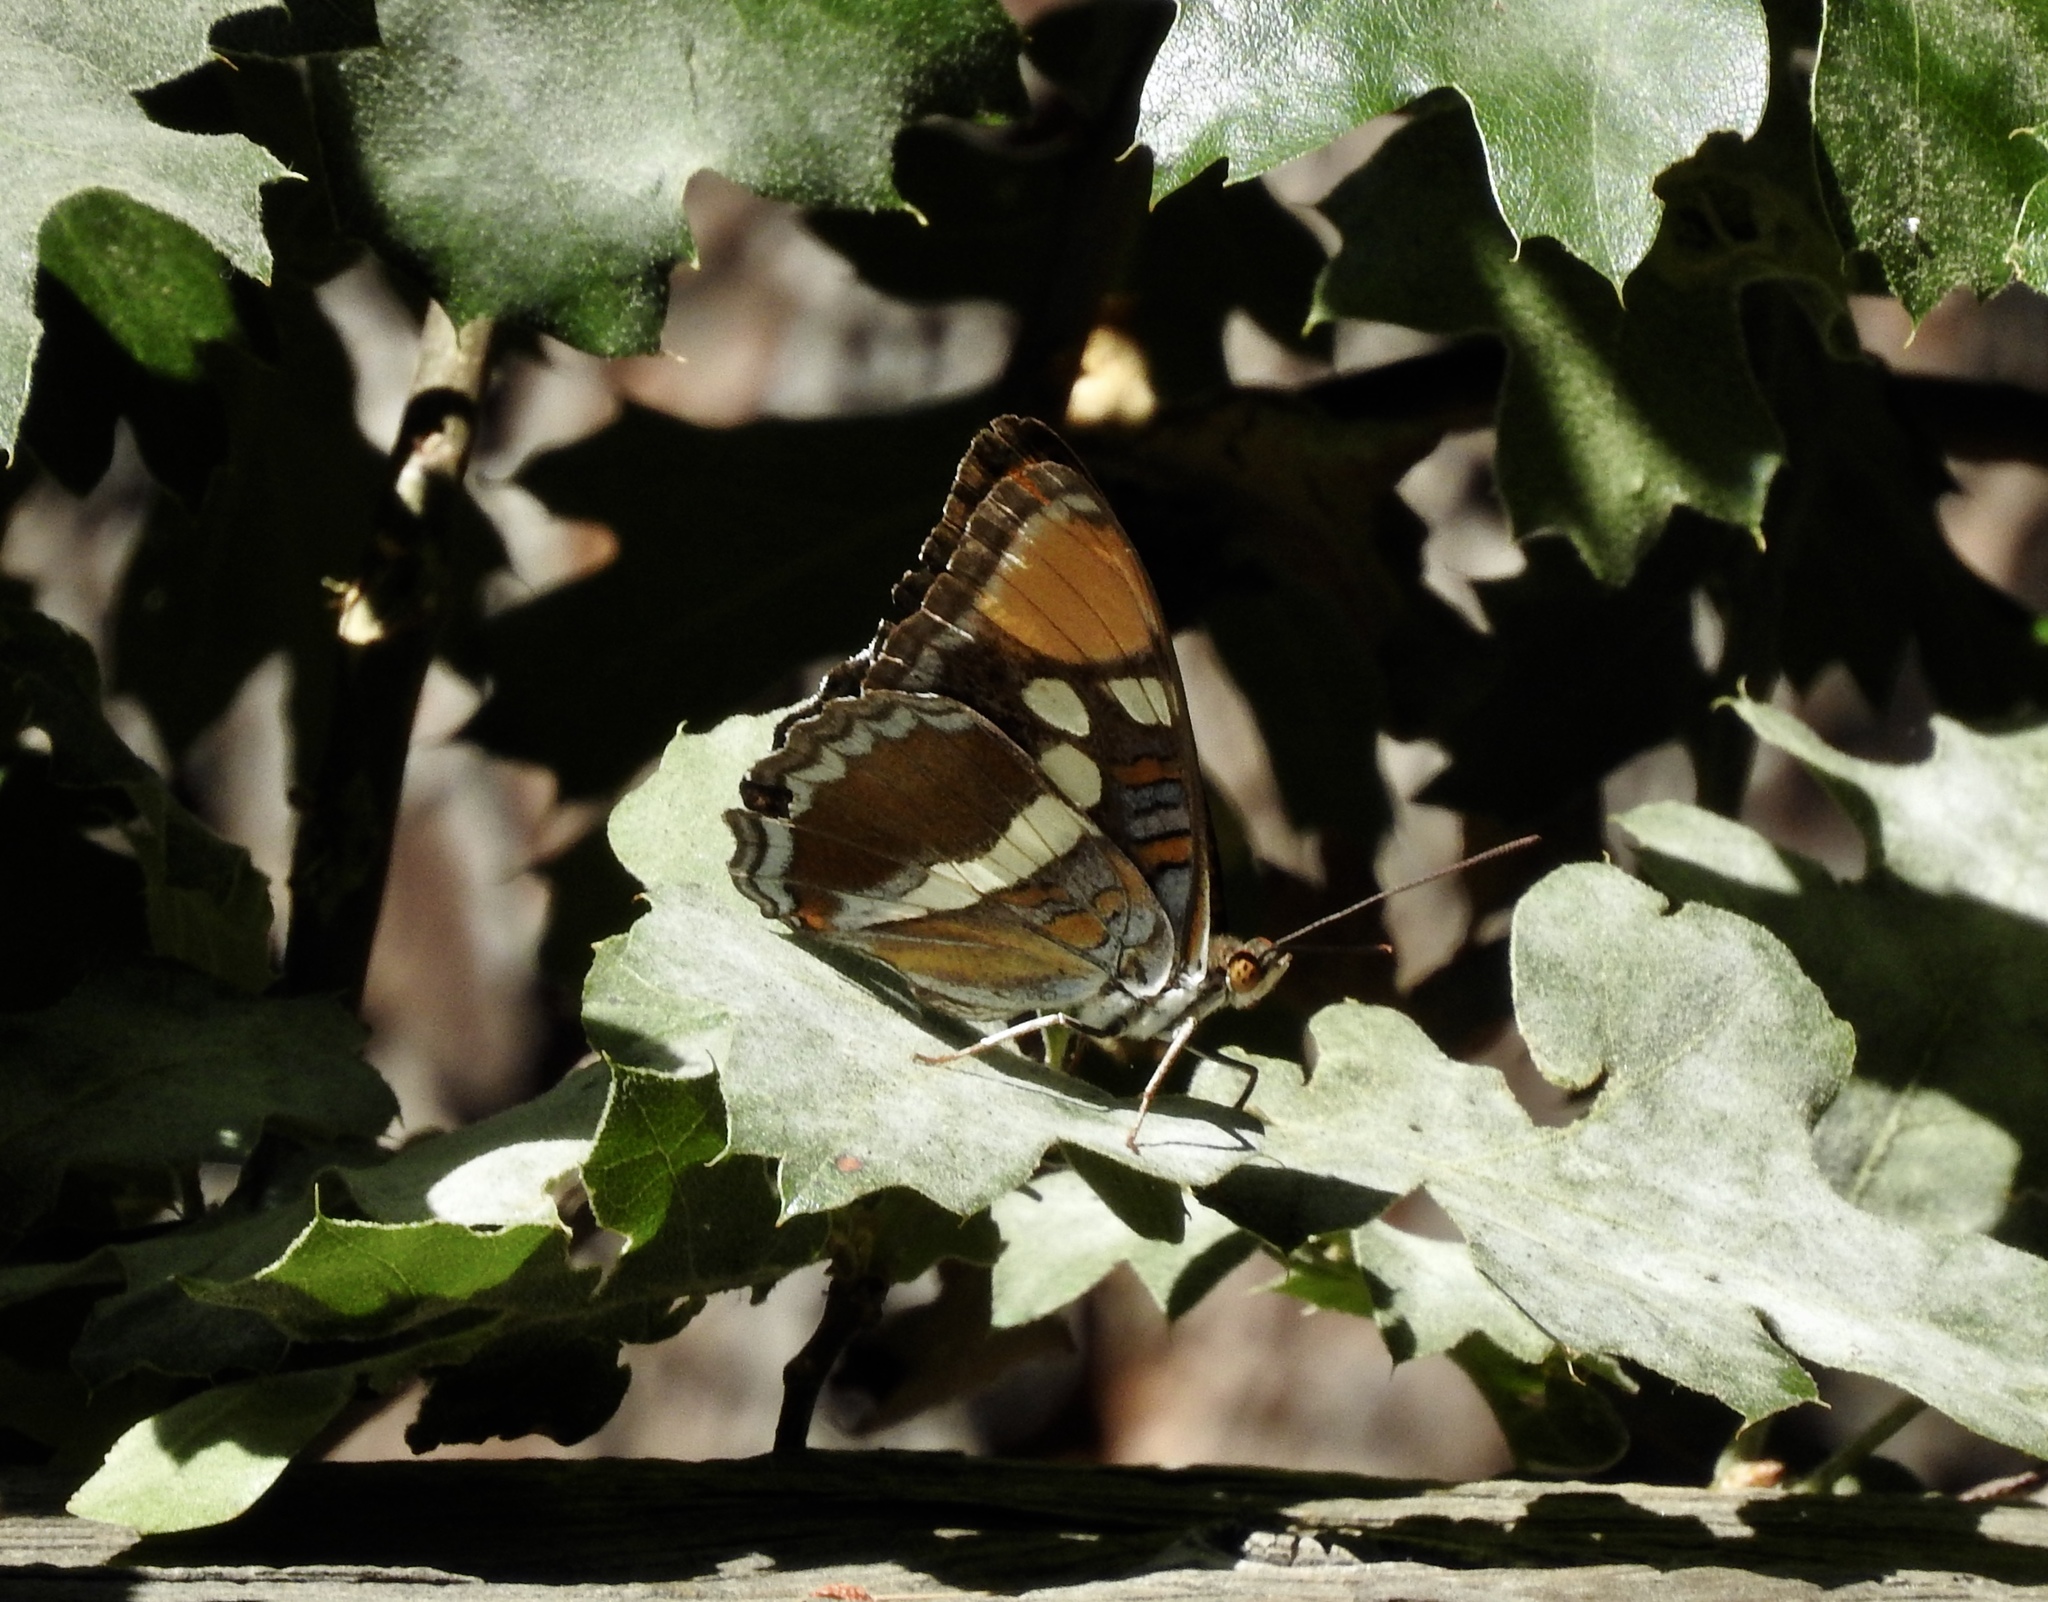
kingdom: Animalia
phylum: Arthropoda
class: Insecta
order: Lepidoptera
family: Nymphalidae
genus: Limenitis
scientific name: Limenitis bredowii
